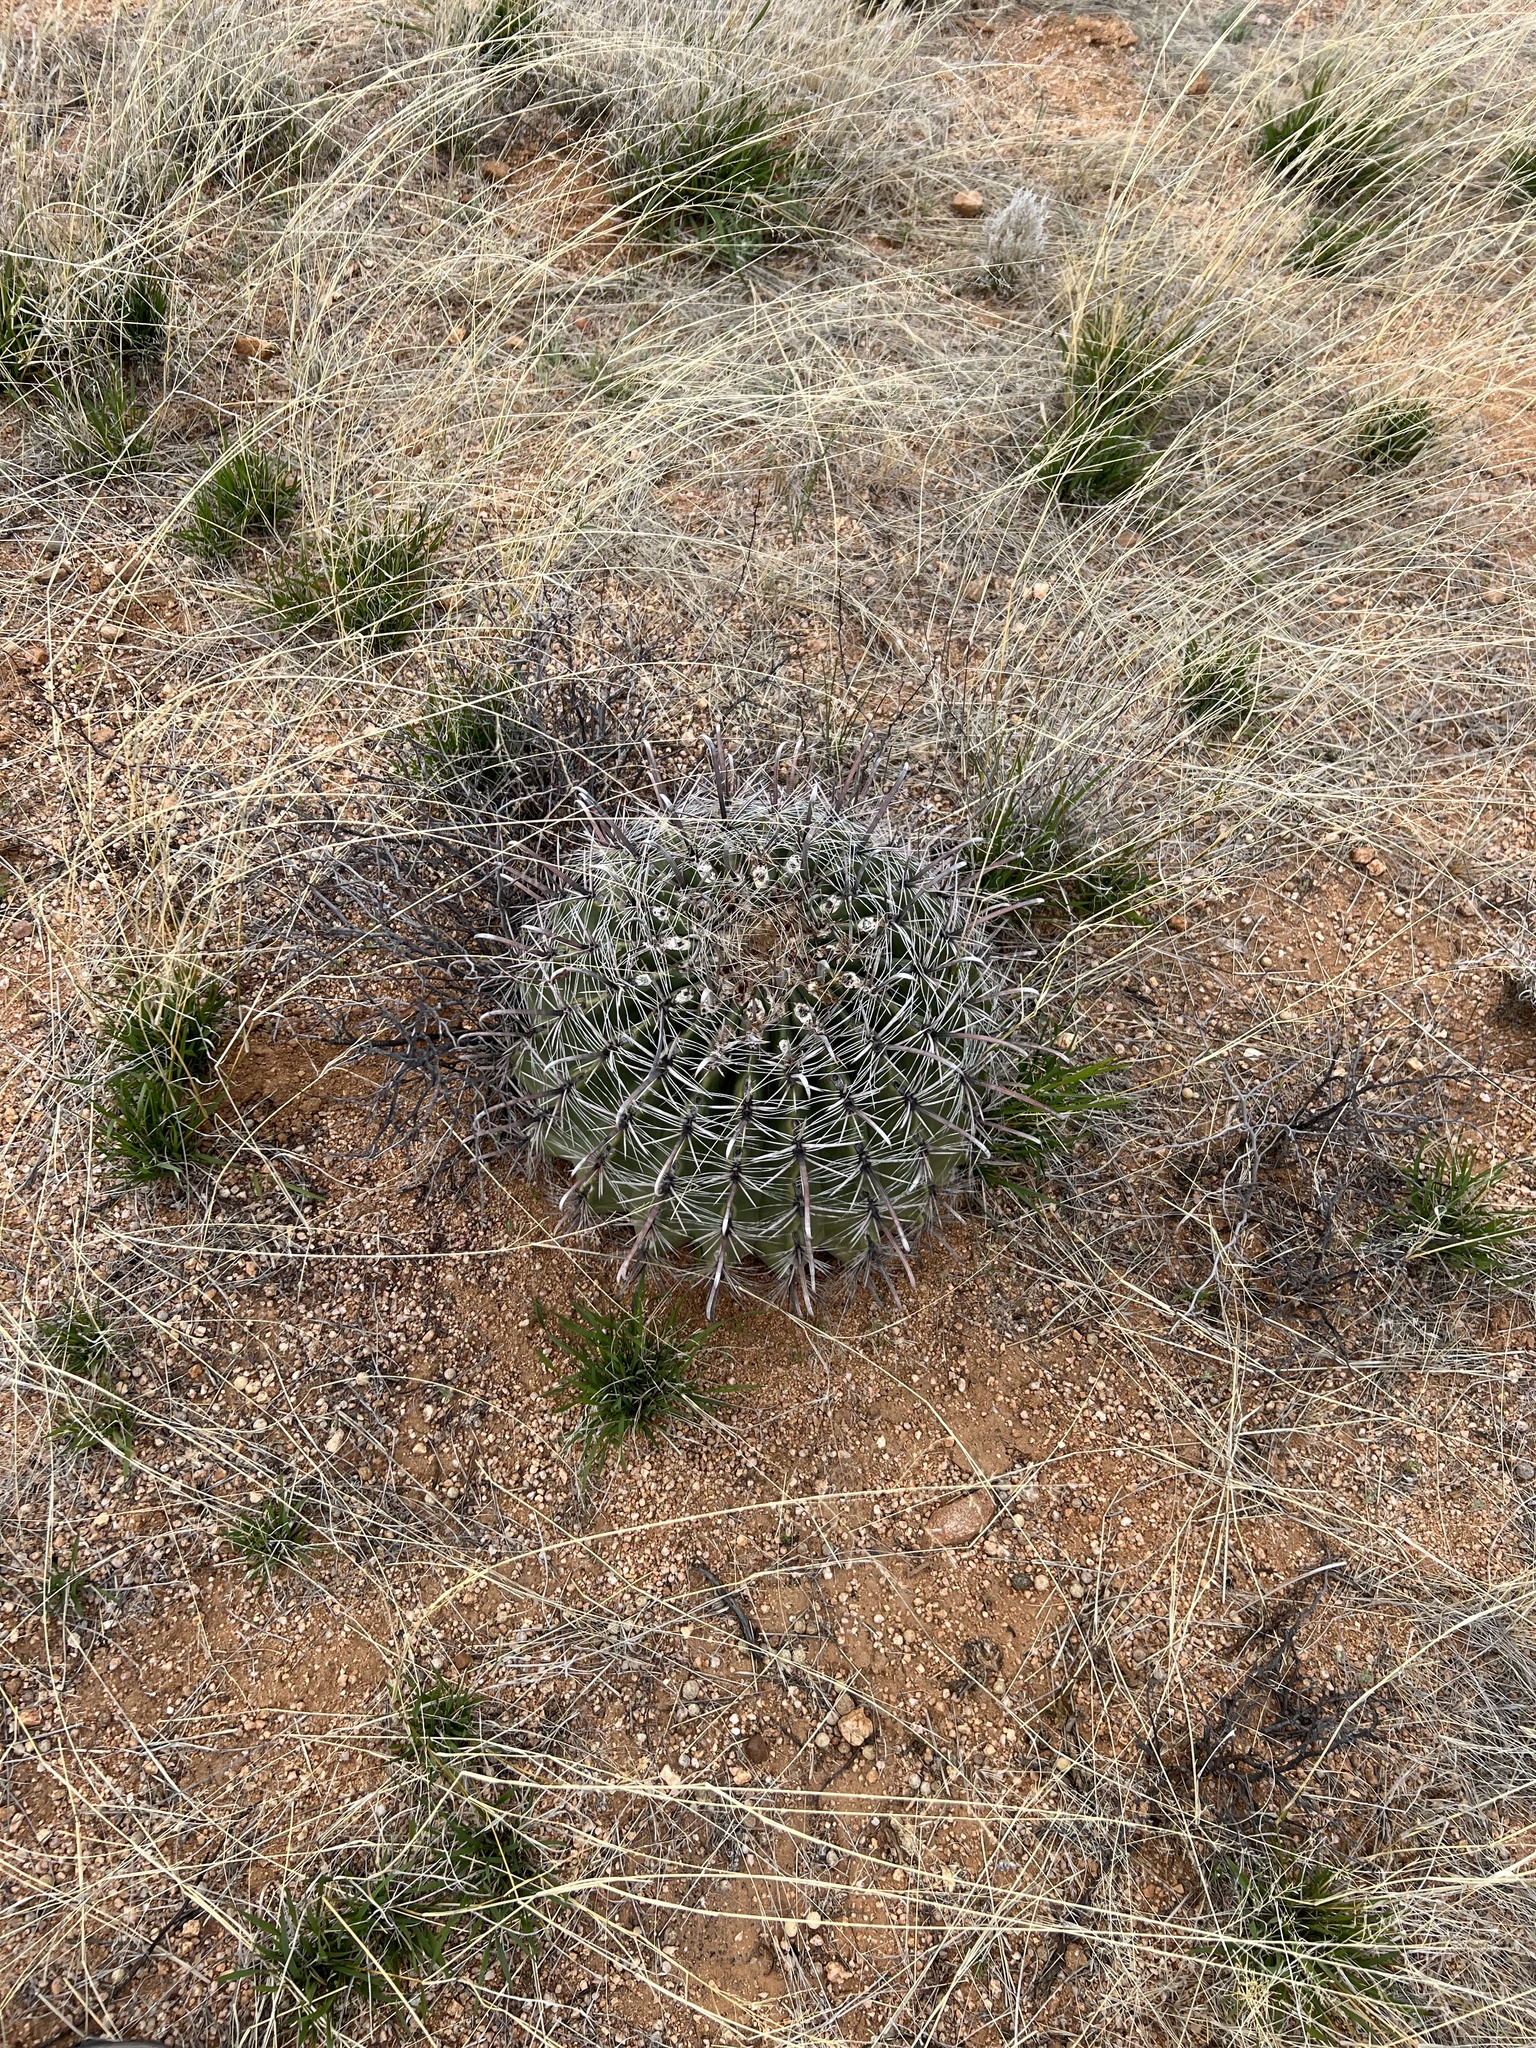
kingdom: Plantae
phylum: Tracheophyta
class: Magnoliopsida
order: Caryophyllales
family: Cactaceae
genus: Ferocactus
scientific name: Ferocactus wislizeni
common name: Candy barrel cactus
